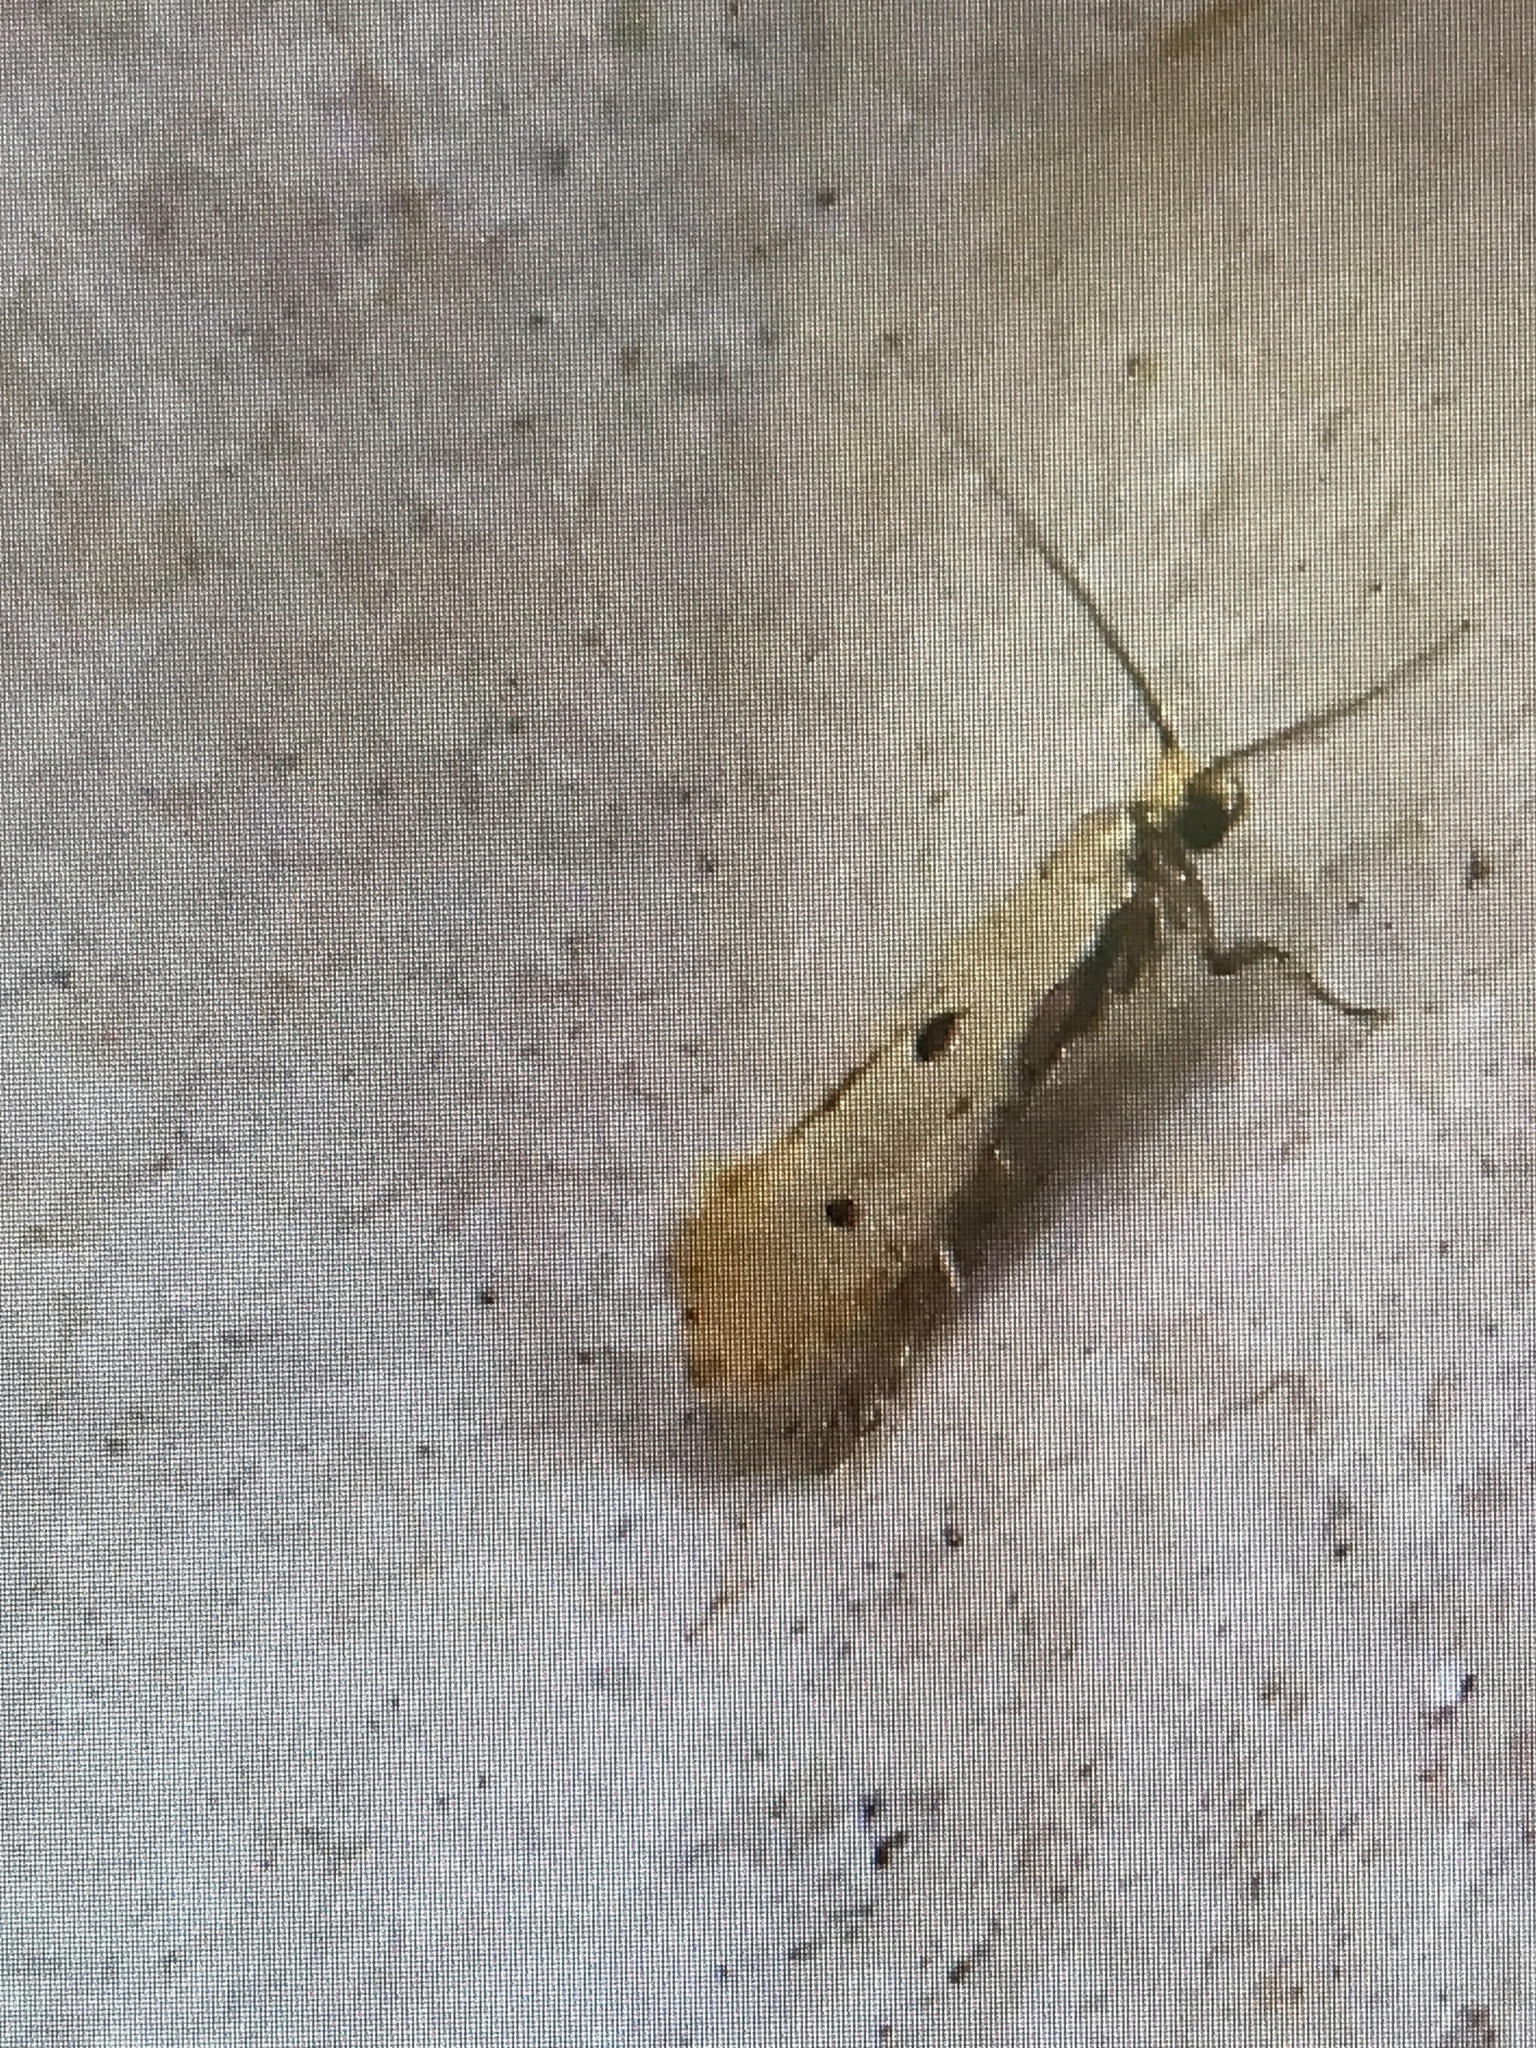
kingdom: Animalia
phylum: Arthropoda
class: Insecta
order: Lepidoptera
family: Tineidae
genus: Tinea
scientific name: Tinea trinotella
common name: Bird's-nest moth
